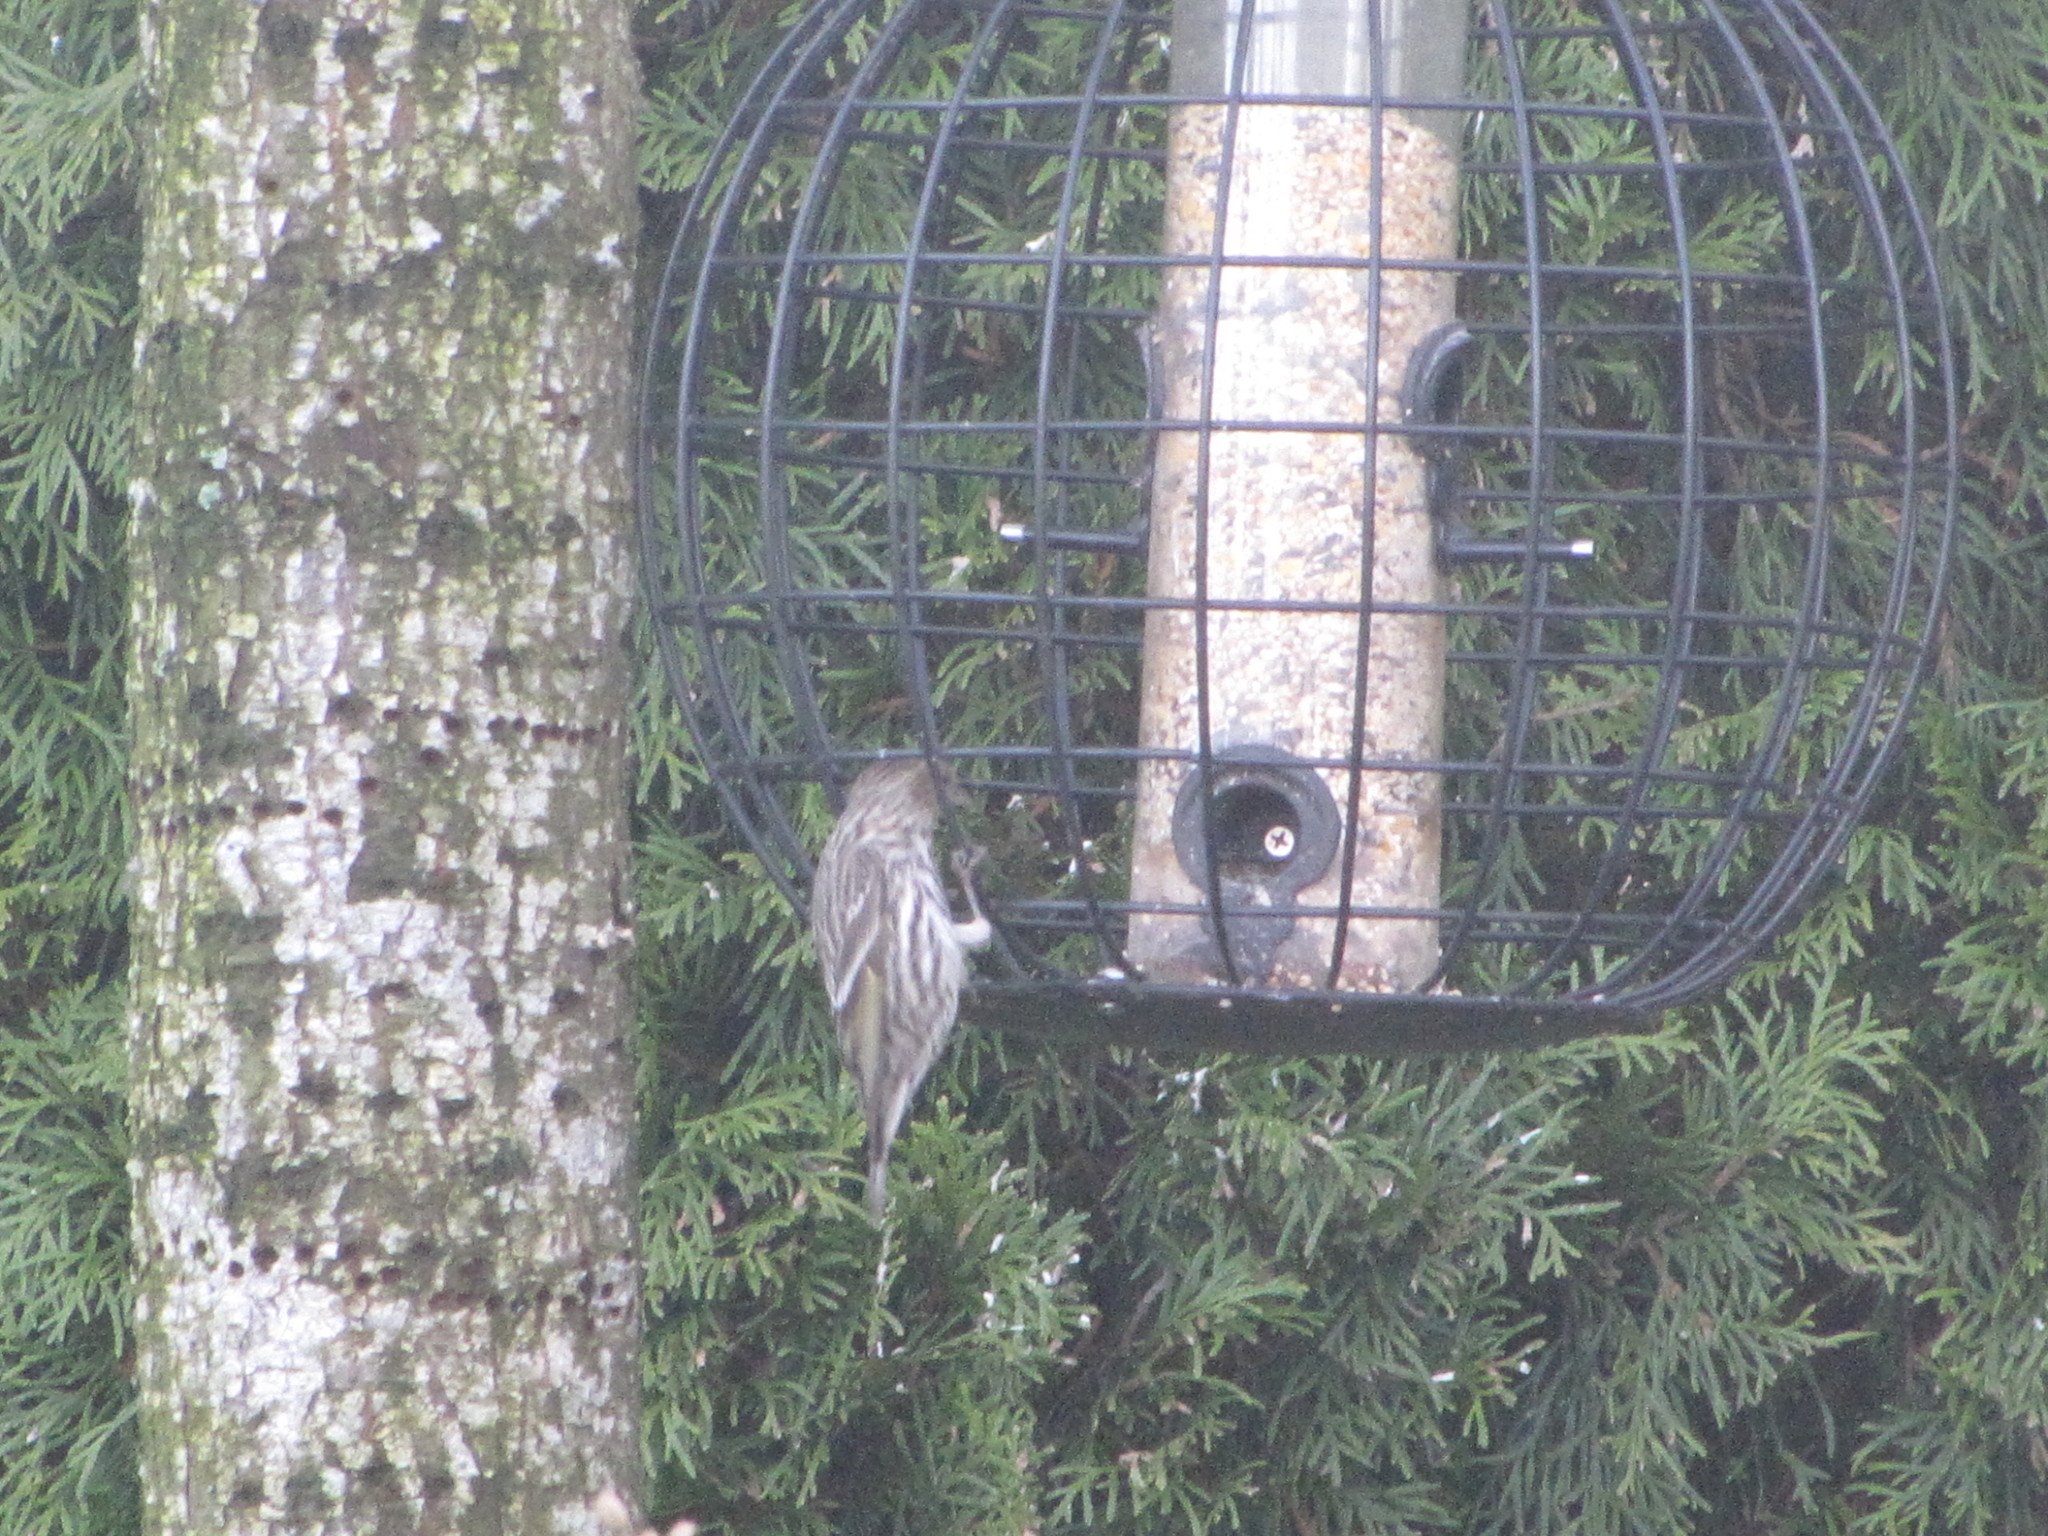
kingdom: Animalia
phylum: Chordata
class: Aves
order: Passeriformes
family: Fringillidae
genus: Spinus
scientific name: Spinus pinus
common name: Pine siskin
